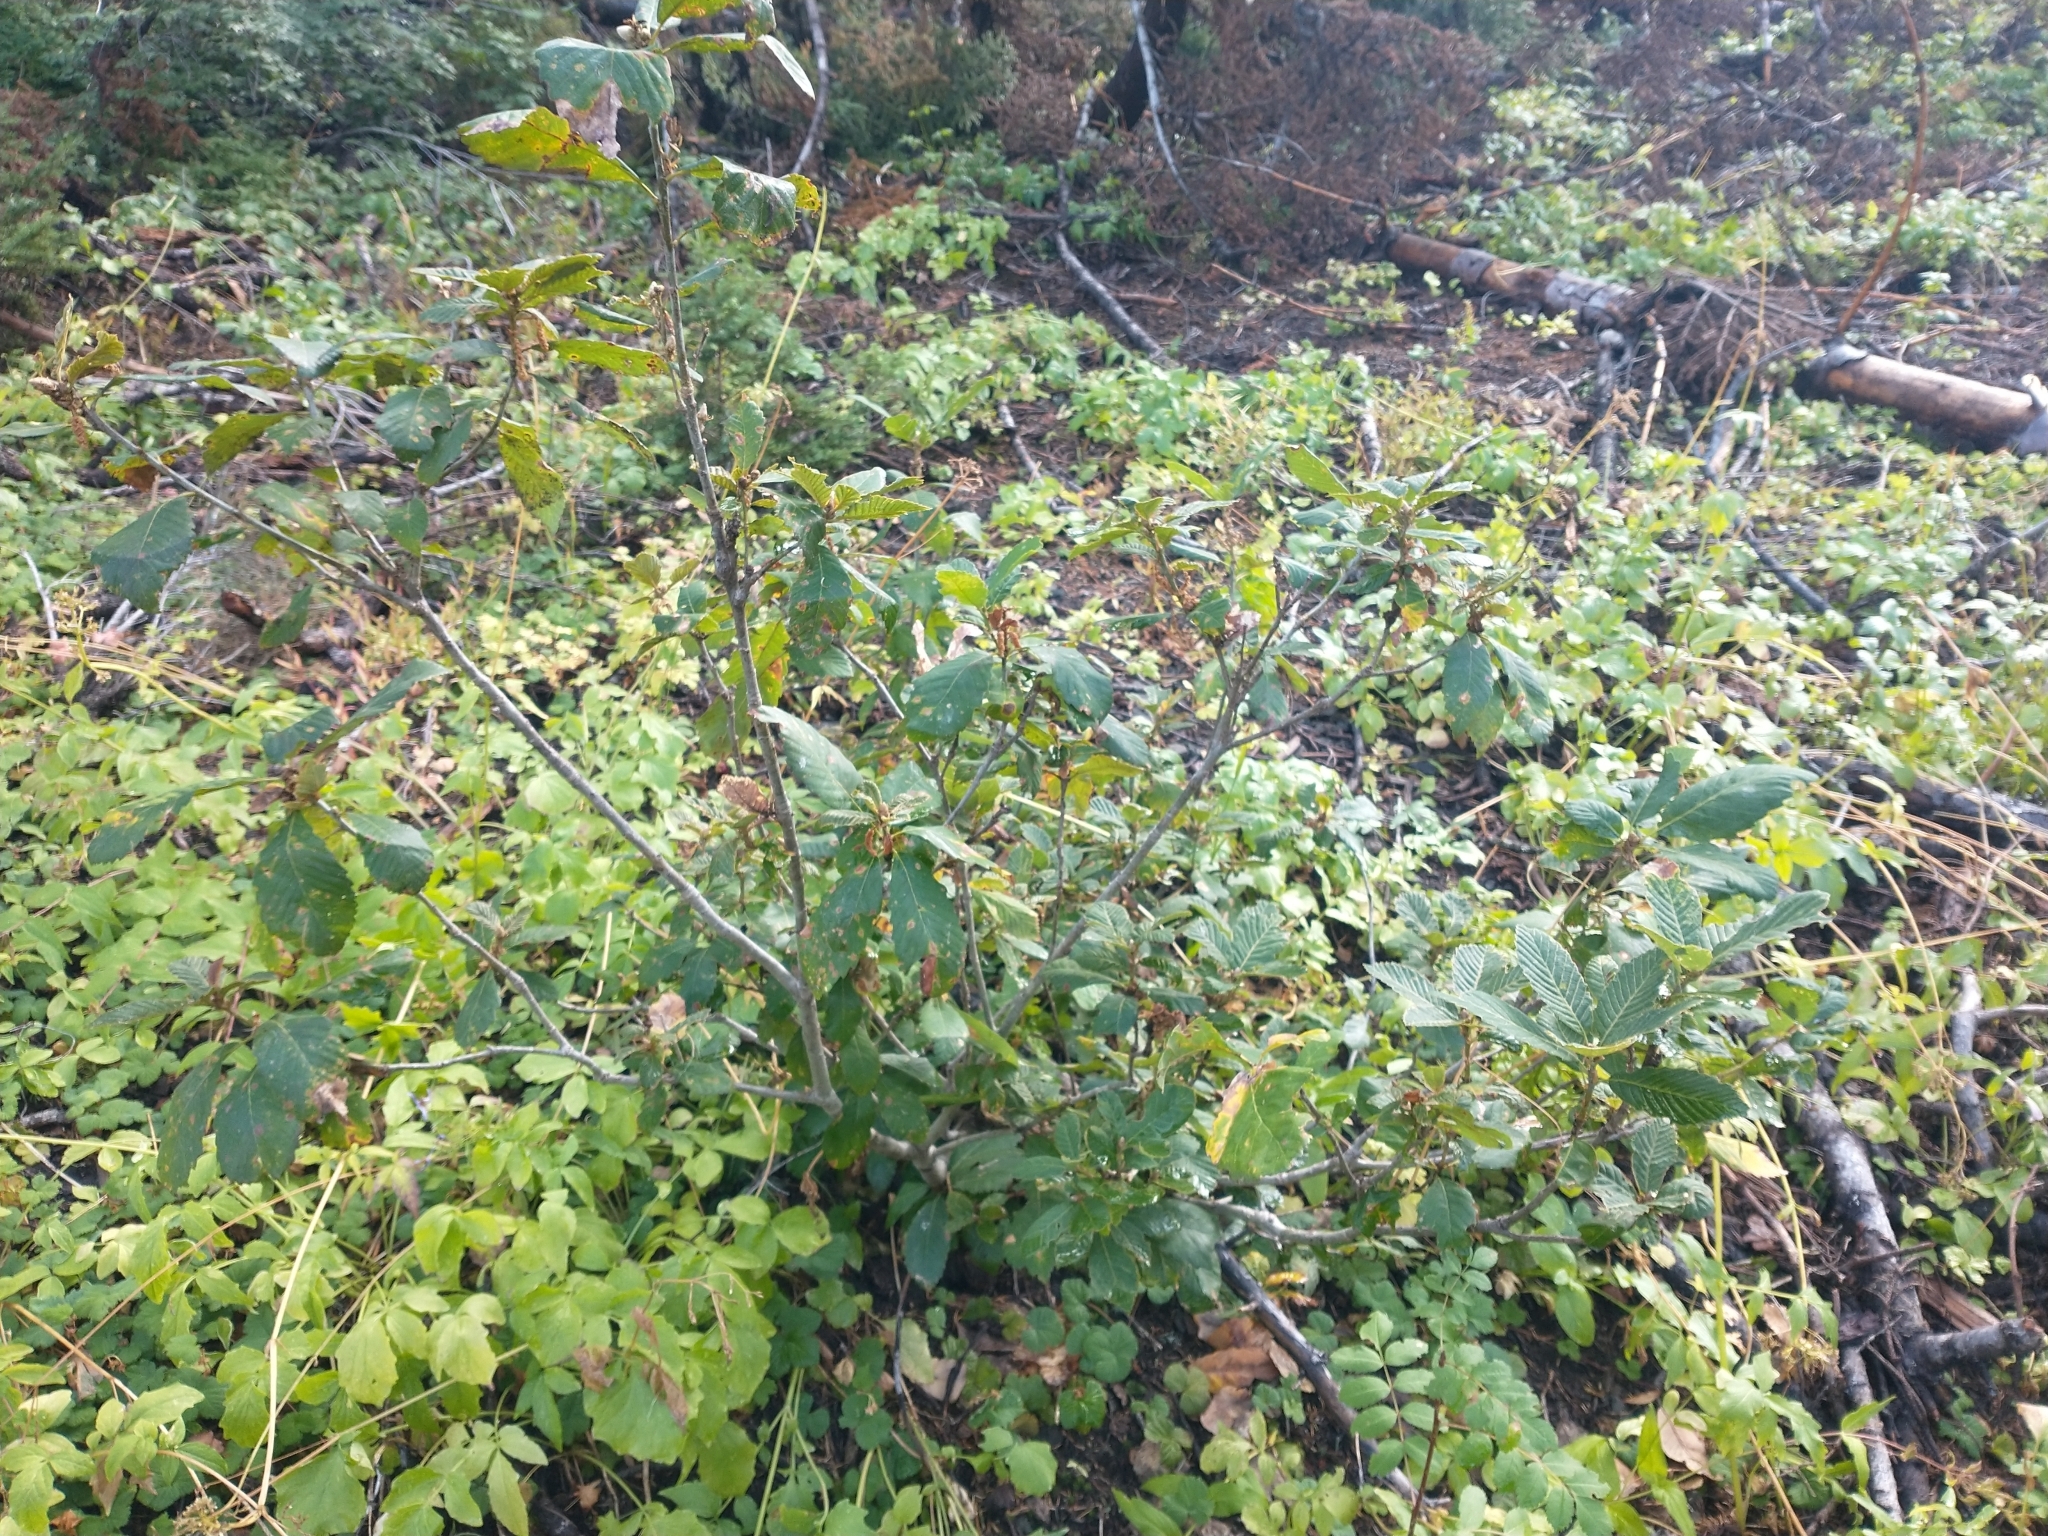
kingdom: Plantae
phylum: Tracheophyta
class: Magnoliopsida
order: Fagales
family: Fagaceae
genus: Quercus
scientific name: Quercus sadleriana
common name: Deer oak
